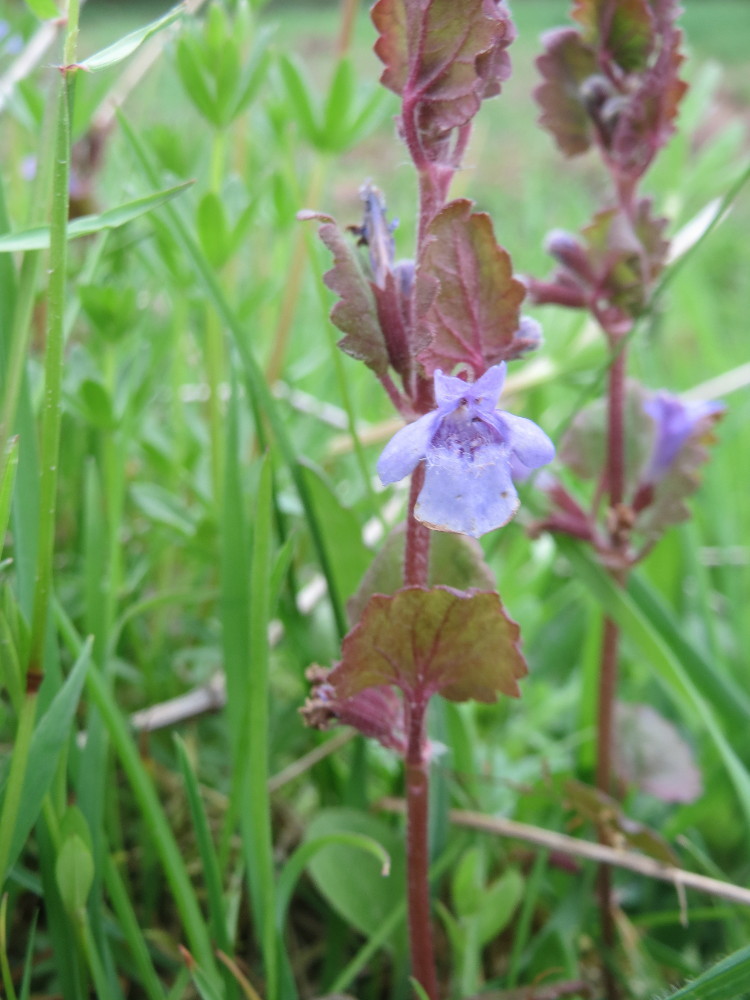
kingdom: Plantae
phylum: Tracheophyta
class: Magnoliopsida
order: Lamiales
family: Lamiaceae
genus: Glechoma
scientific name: Glechoma hederacea
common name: Ground ivy
